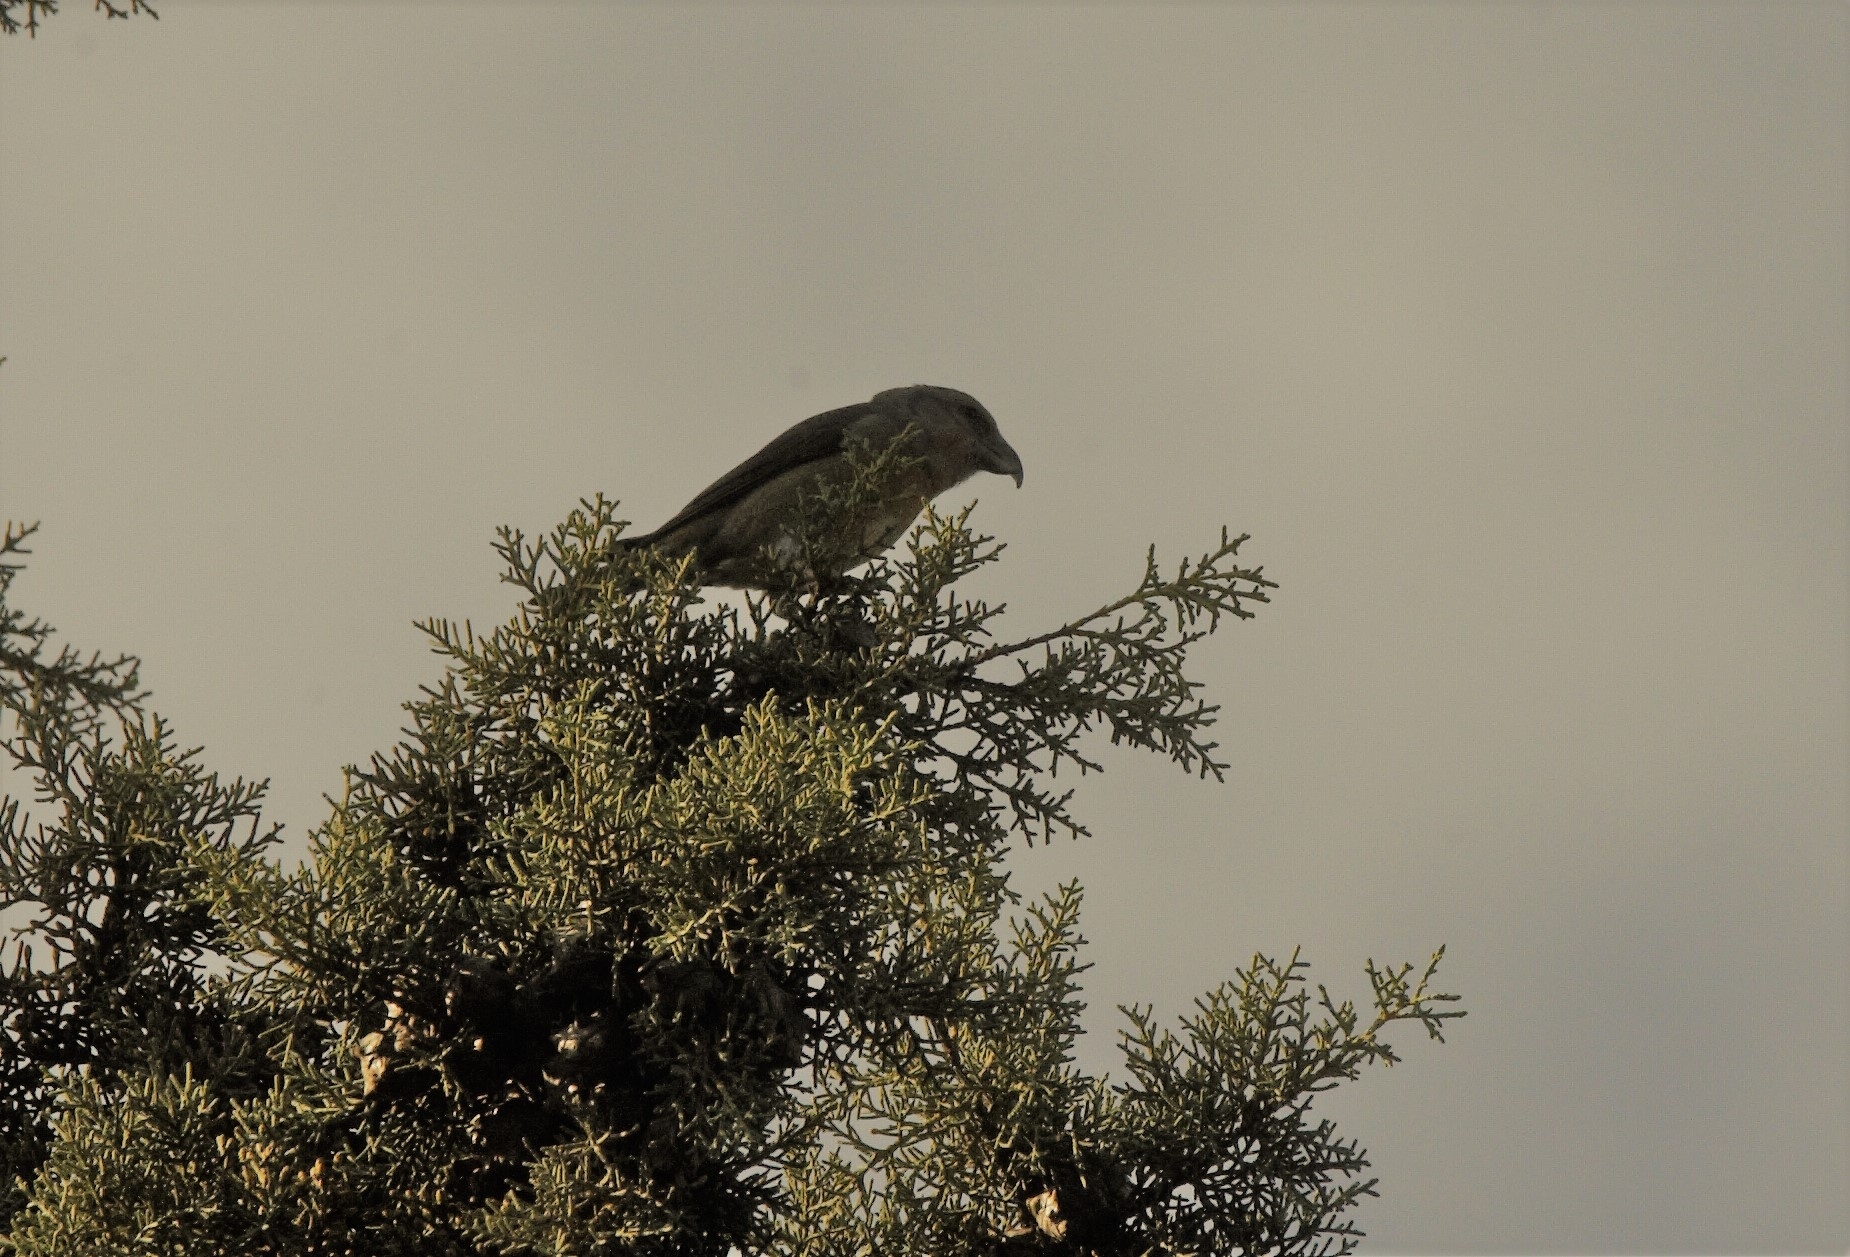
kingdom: Animalia
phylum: Chordata
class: Aves
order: Passeriformes
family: Fringillidae
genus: Loxia
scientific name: Loxia curvirostra
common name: Red crossbill
